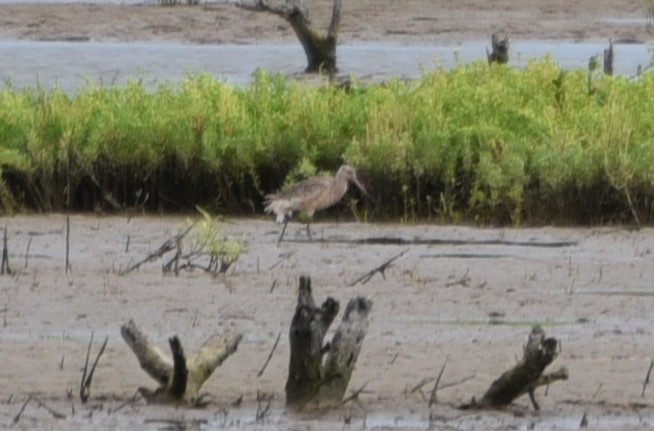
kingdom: Animalia
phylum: Chordata
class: Aves
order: Charadriiformes
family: Scolopacidae
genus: Limosa
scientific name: Limosa fedoa
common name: Marbled godwit
